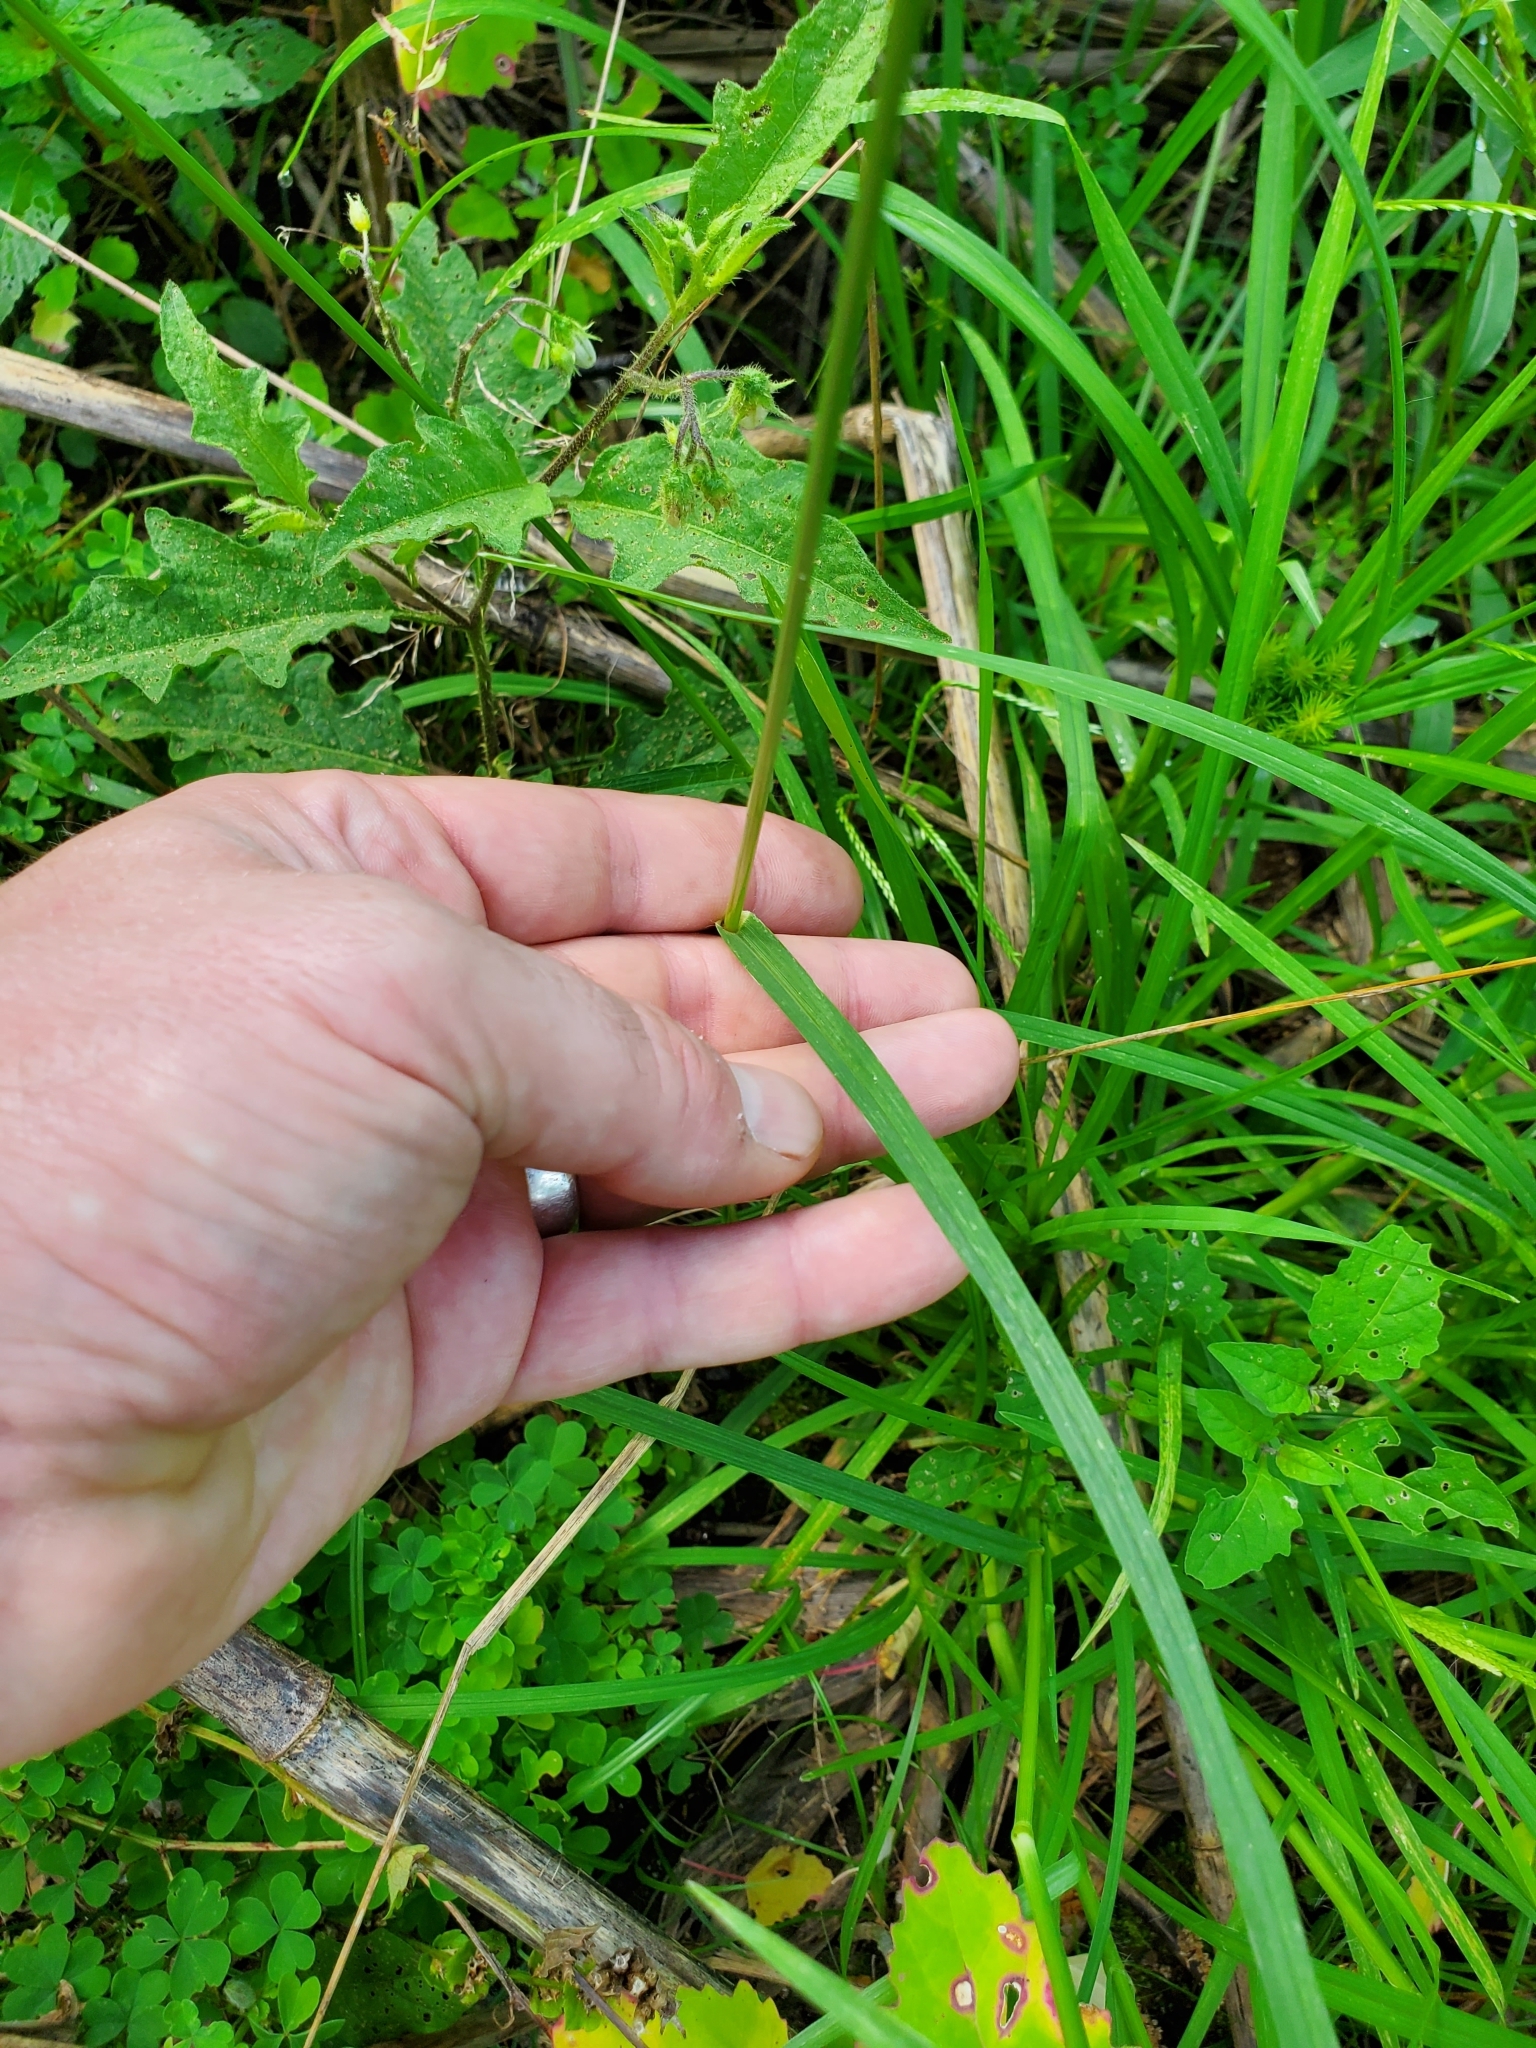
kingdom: Plantae
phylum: Tracheophyta
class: Liliopsida
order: Poales
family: Poaceae
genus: Eleusine
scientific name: Eleusine indica
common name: Yard-grass
